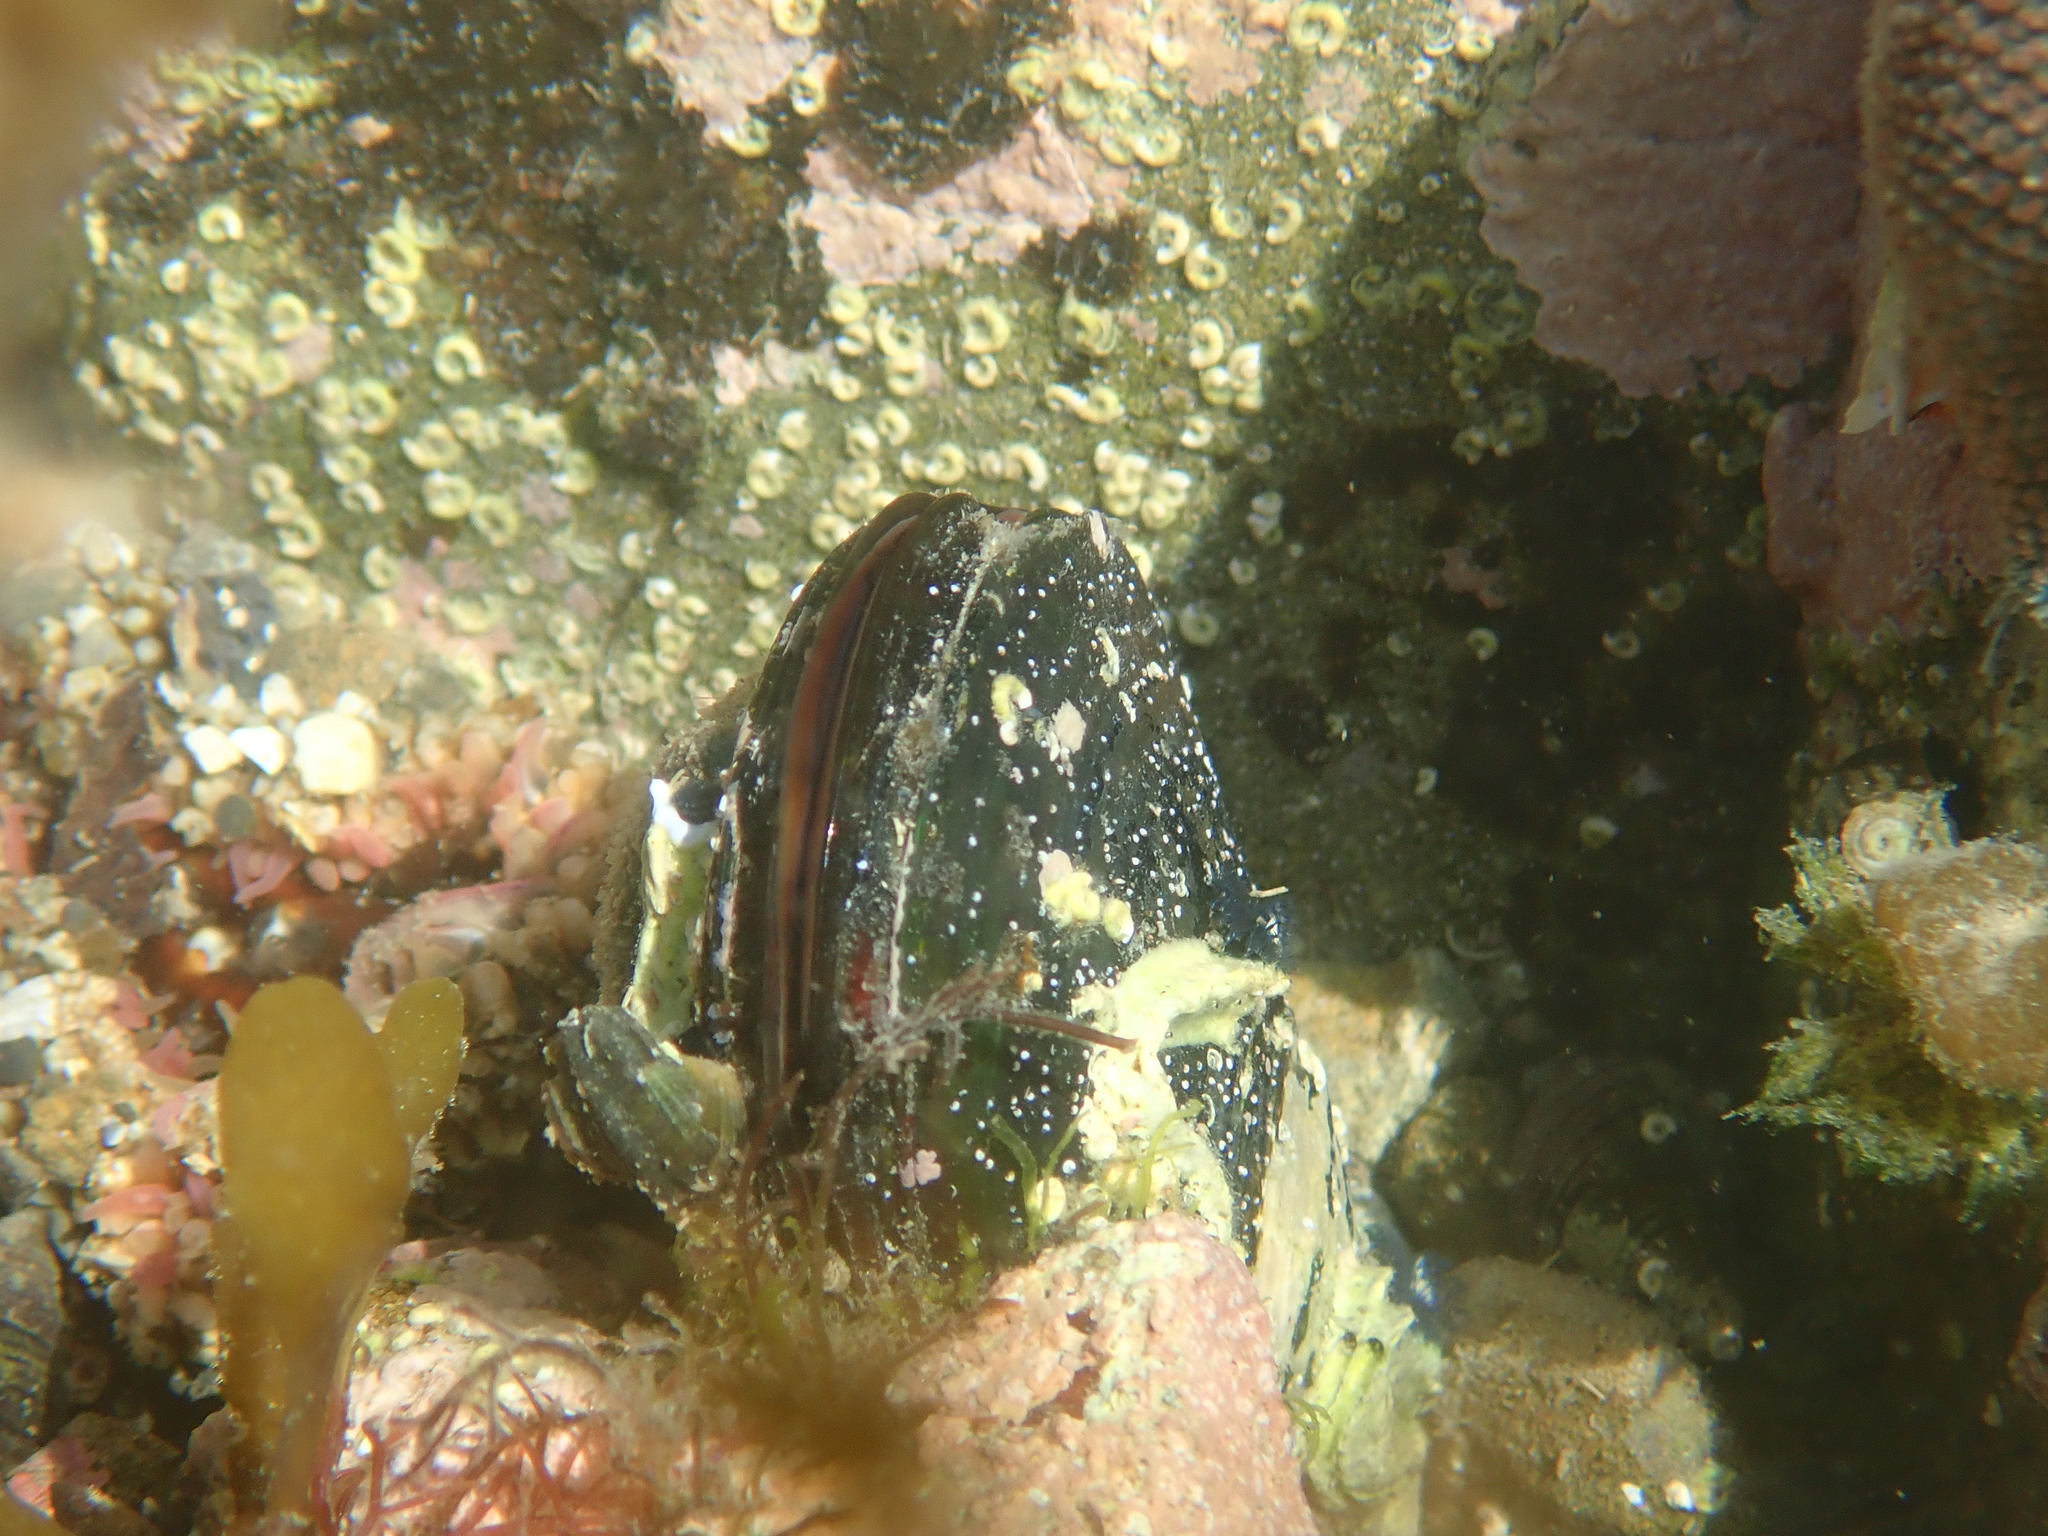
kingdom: Animalia
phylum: Mollusca
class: Bivalvia
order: Mytilida
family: Mytilidae
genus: Perna
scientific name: Perna canaliculus
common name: New zealand greenshelltm
